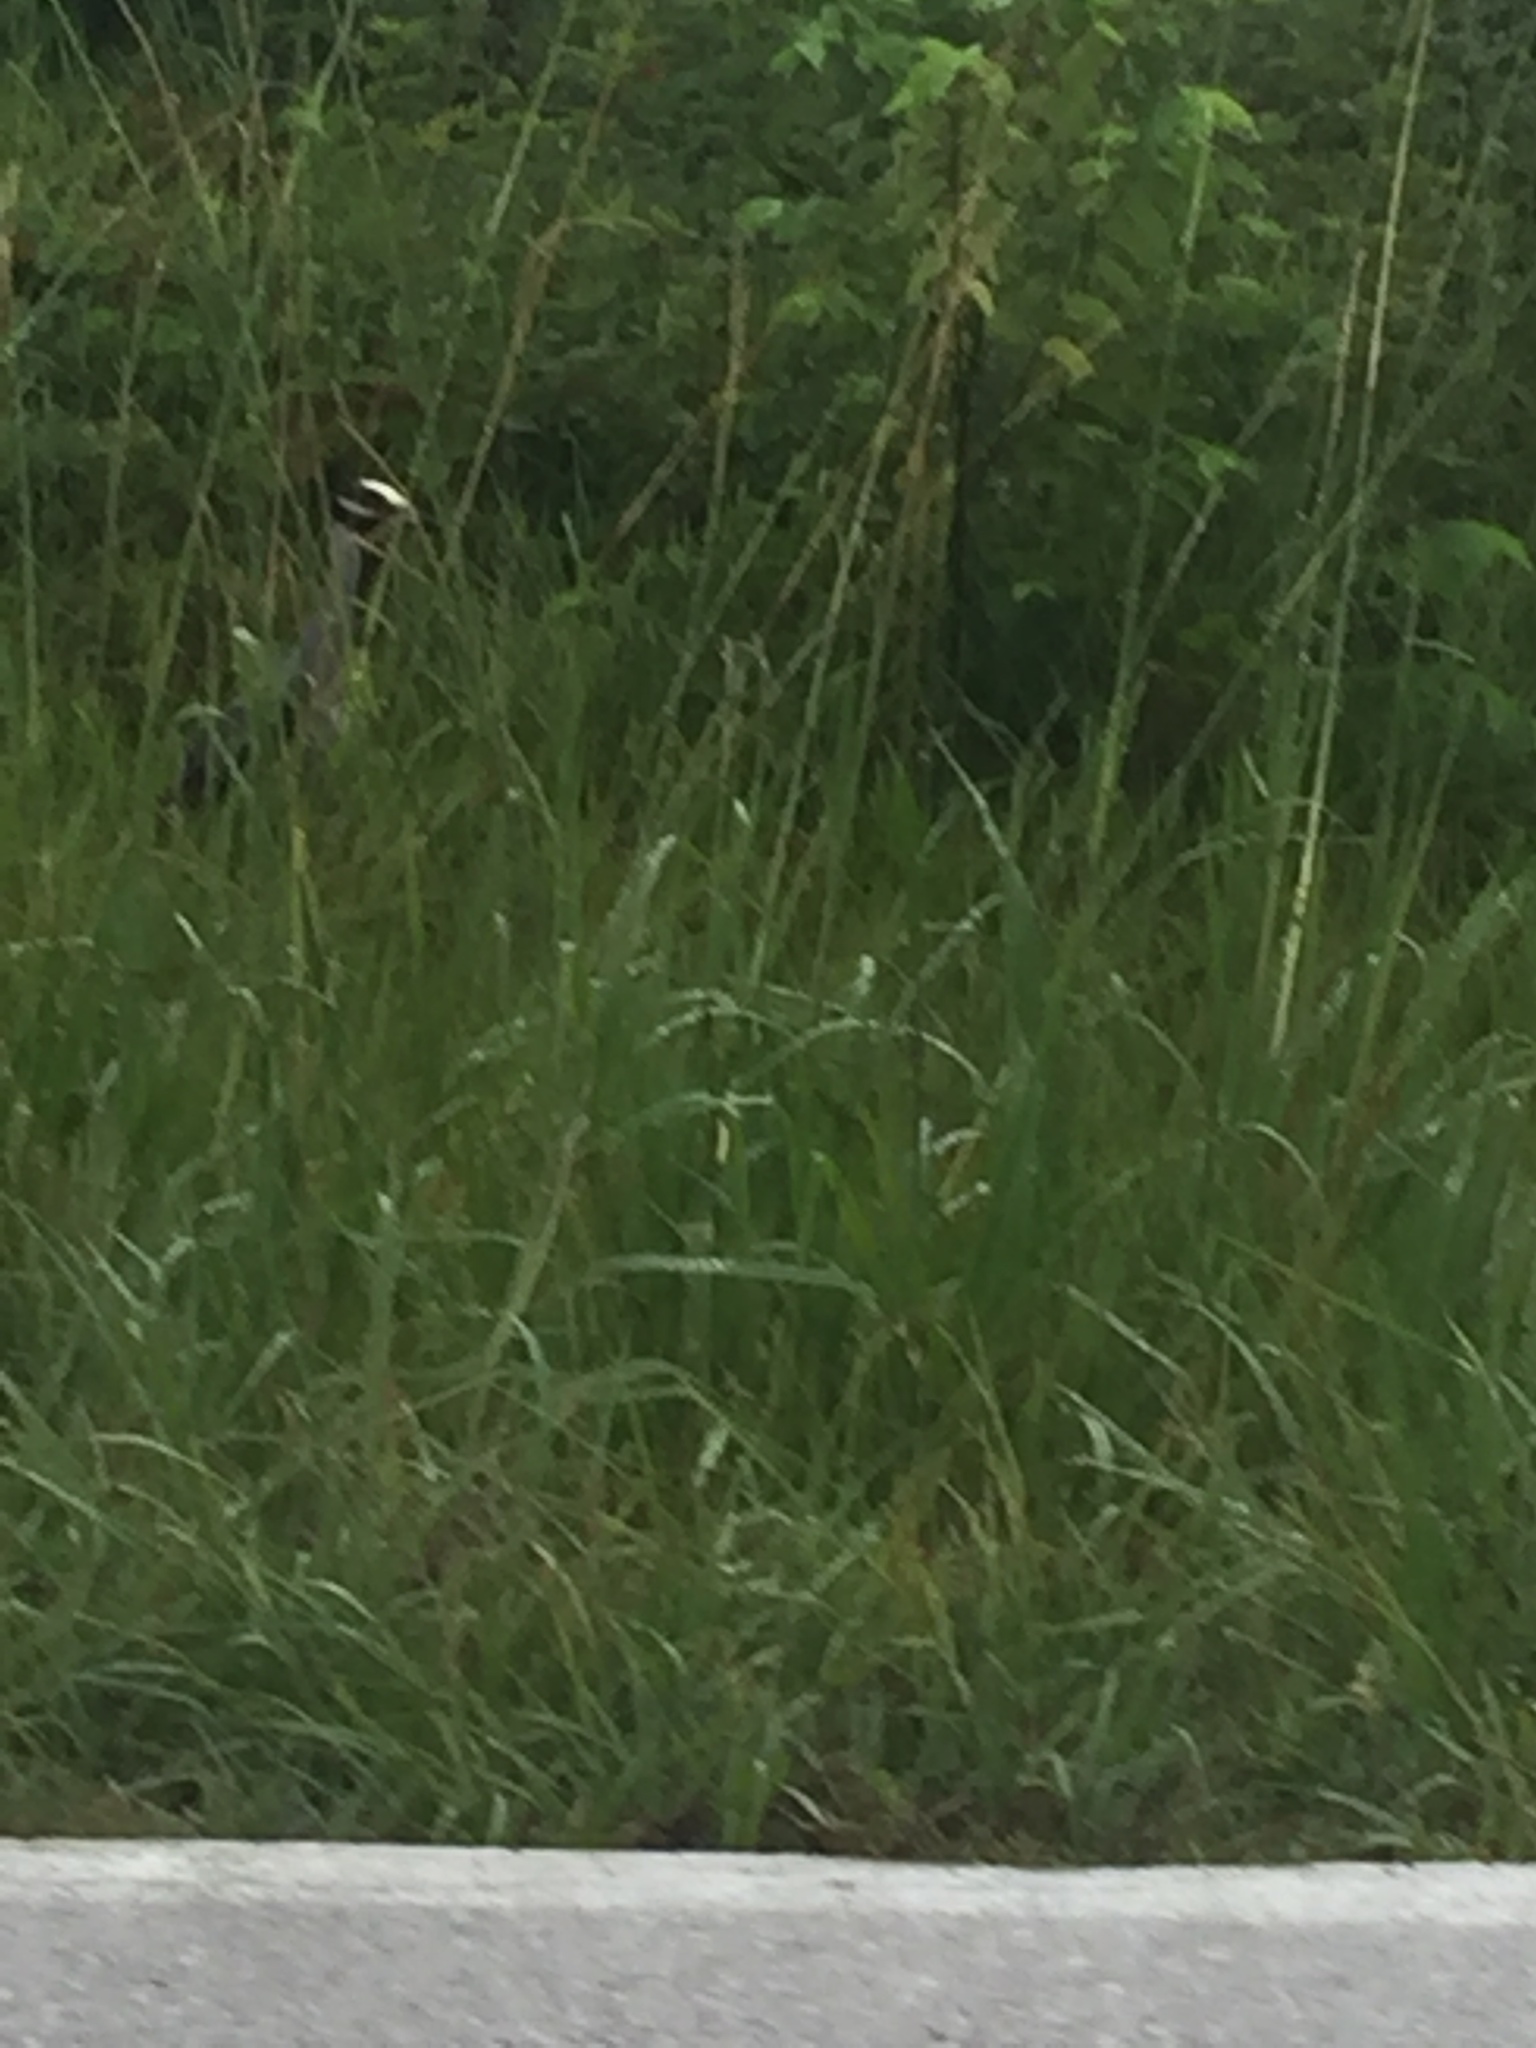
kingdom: Animalia
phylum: Chordata
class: Aves
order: Pelecaniformes
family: Ardeidae
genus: Nyctanassa
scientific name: Nyctanassa violacea
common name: Yellow-crowned night heron
